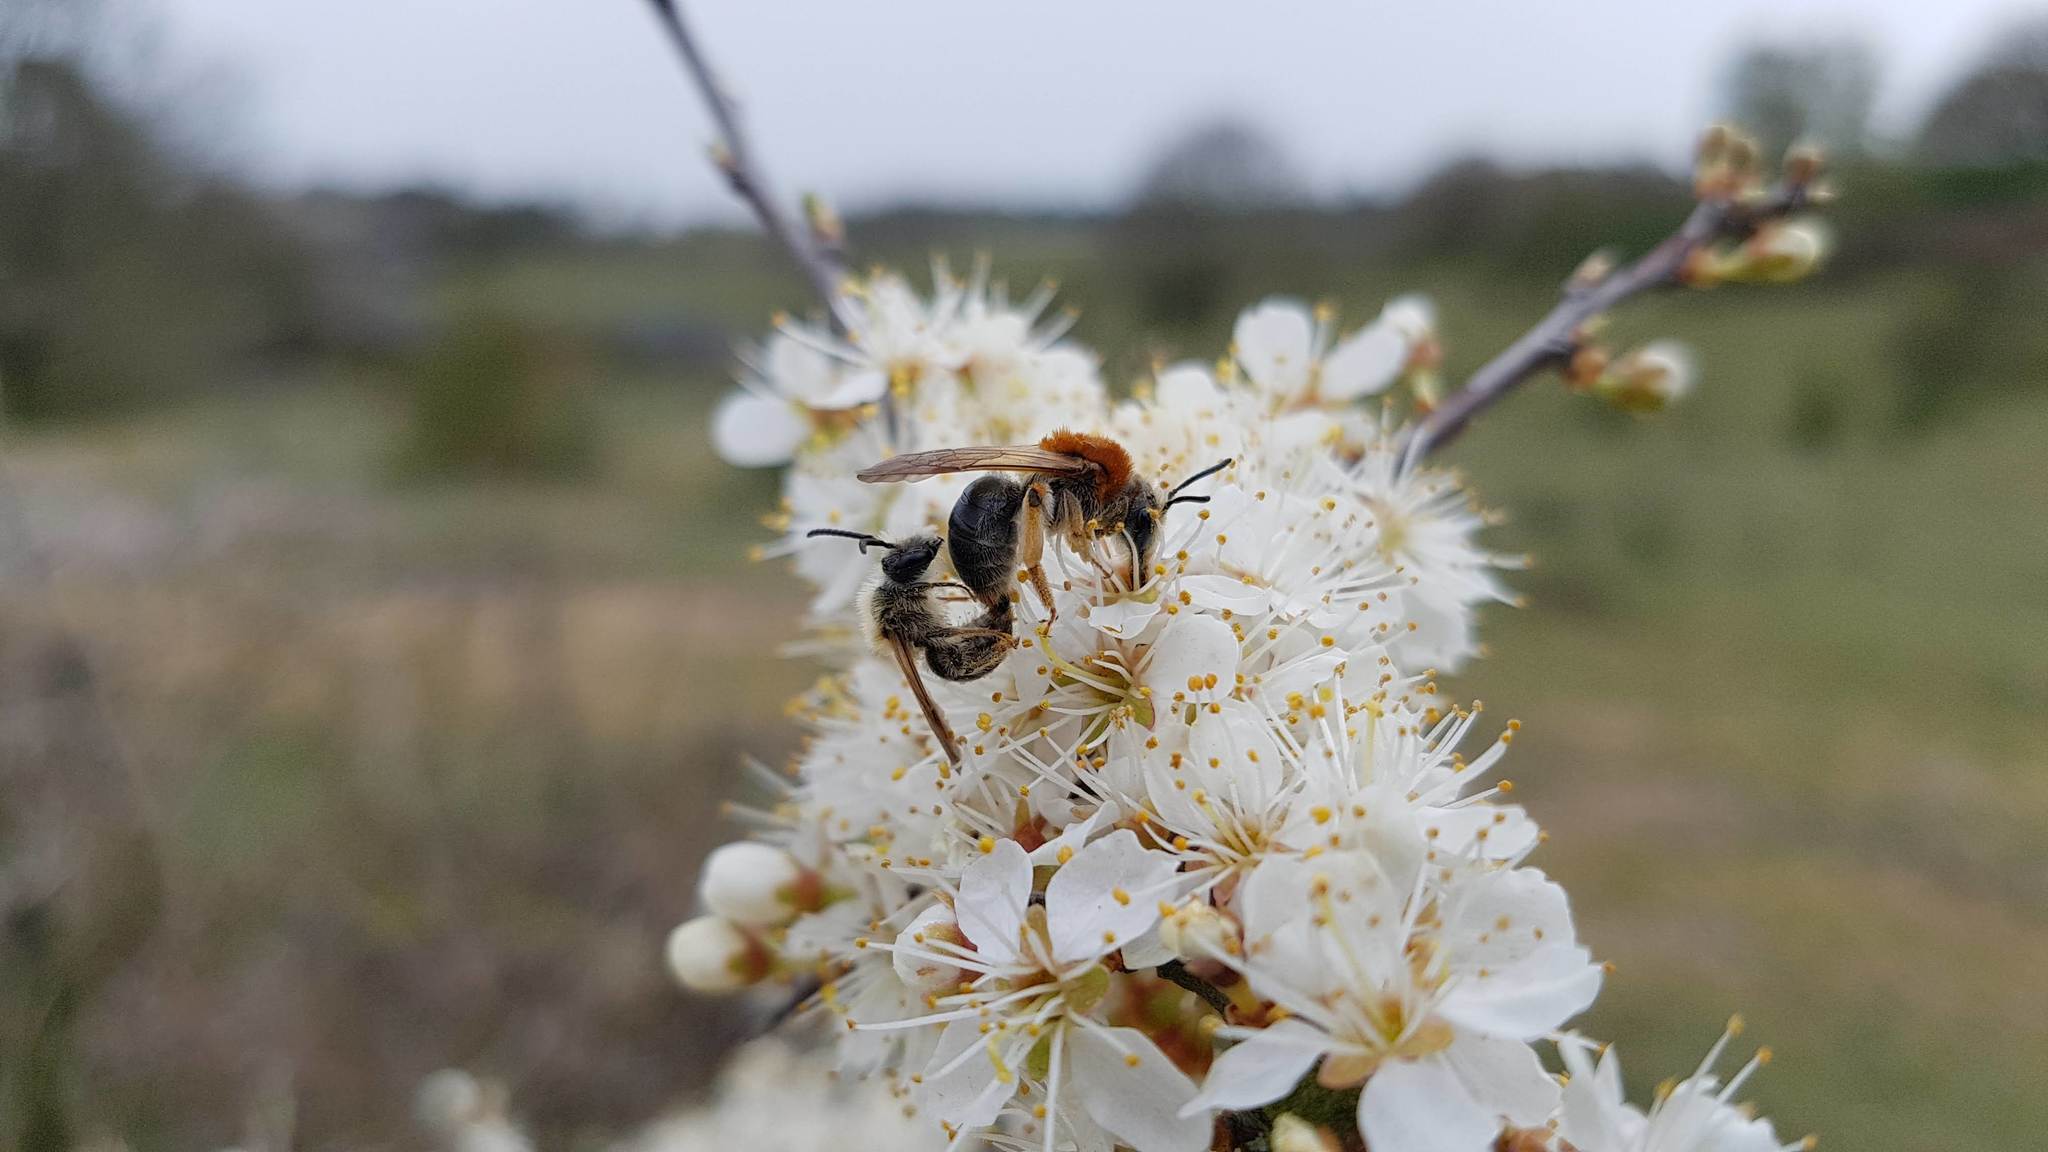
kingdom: Animalia
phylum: Arthropoda
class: Insecta
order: Hymenoptera
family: Andrenidae
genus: Andrena
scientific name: Andrena haemorrhoa
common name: Early mining bee
